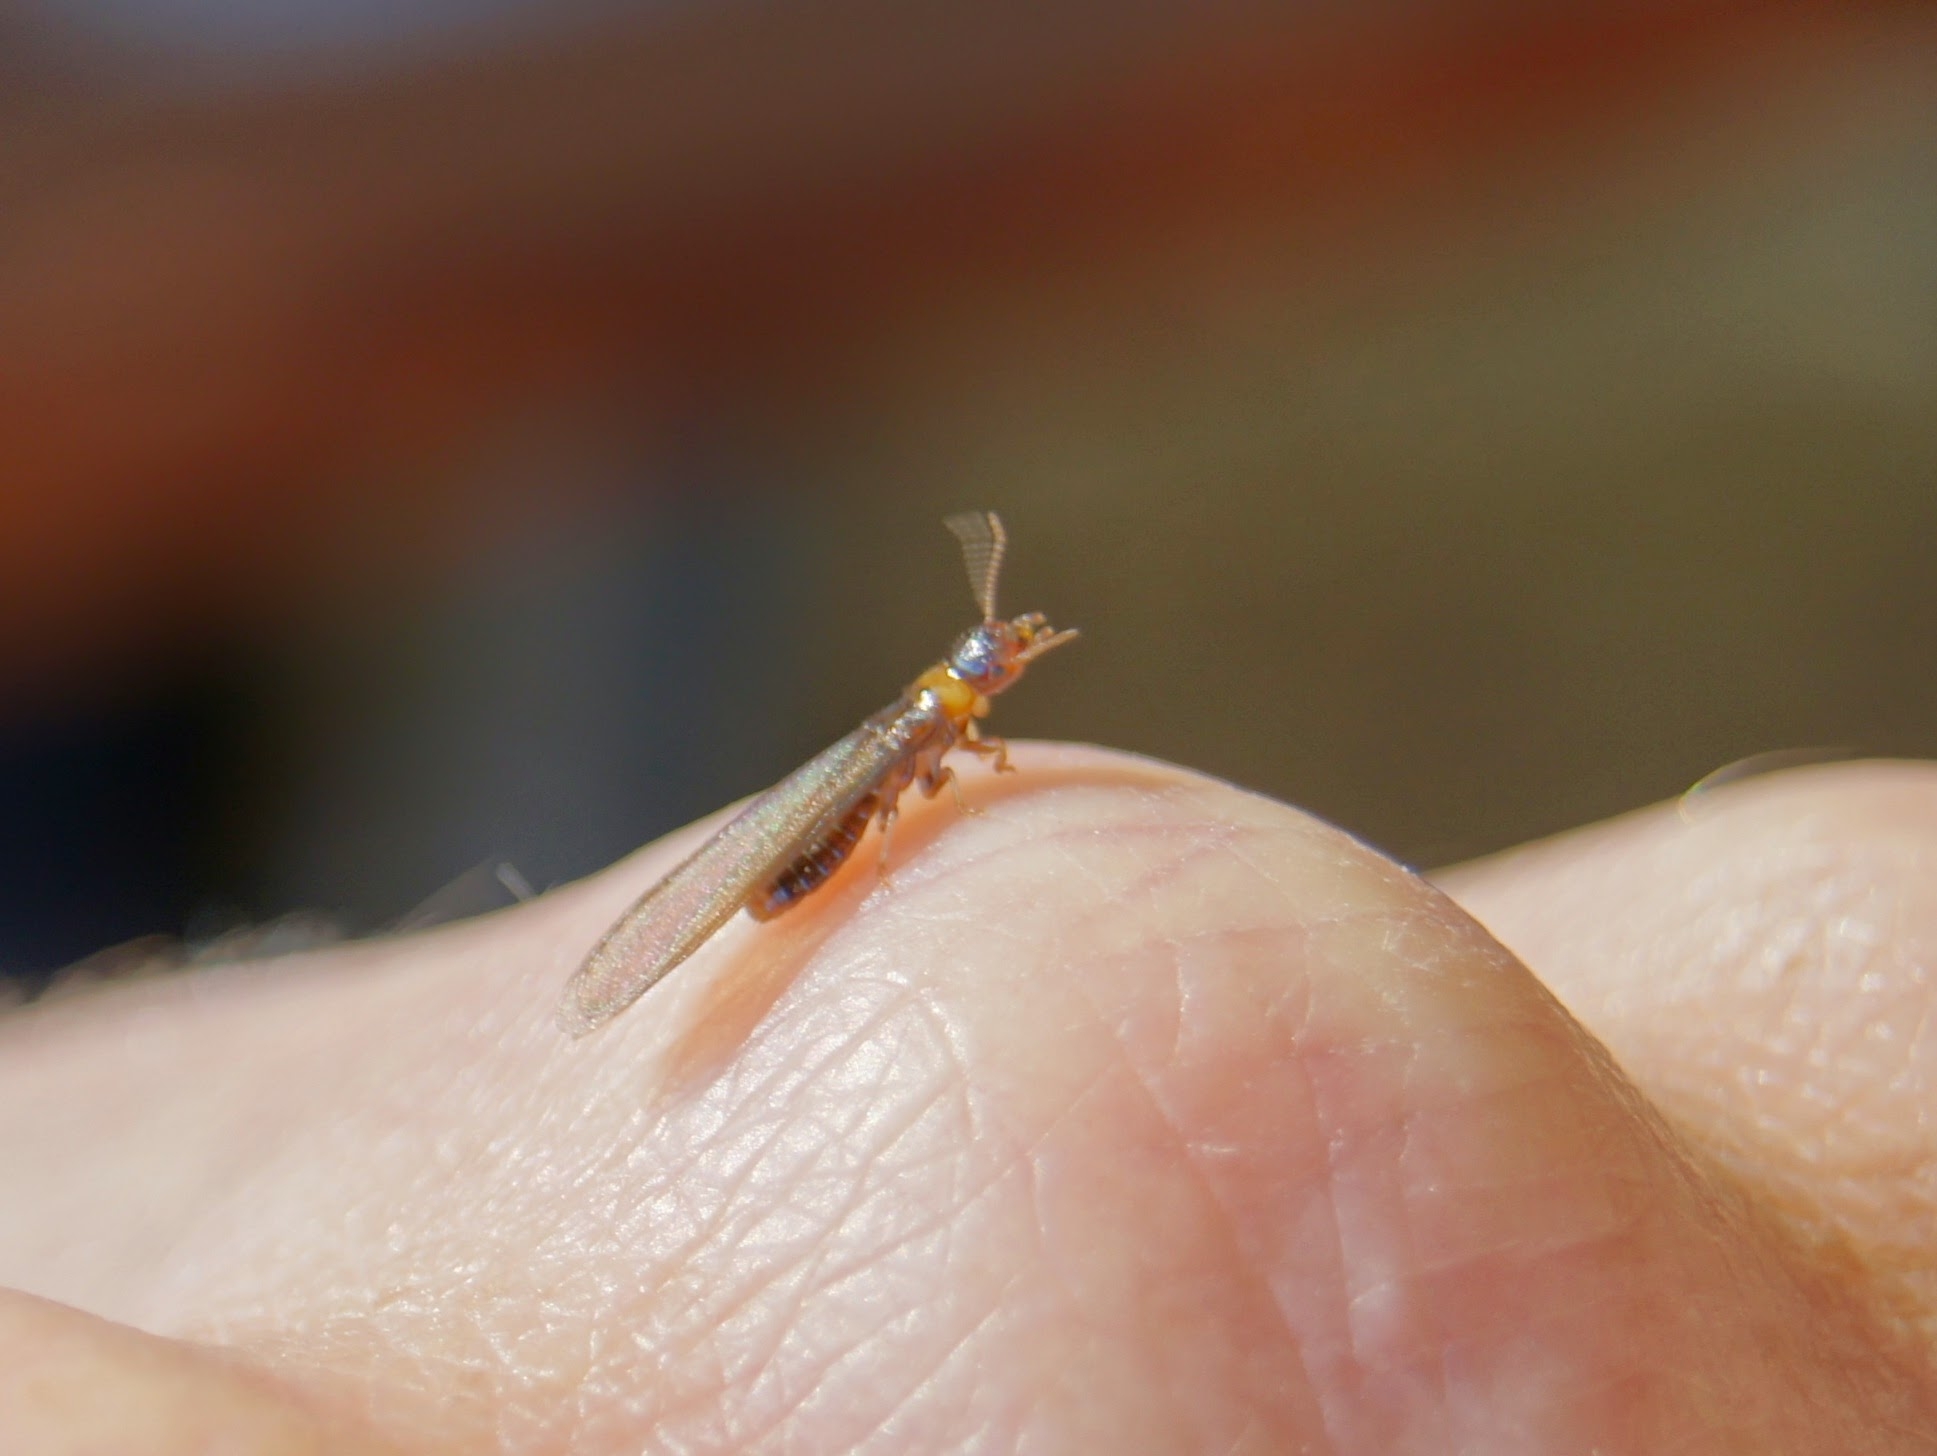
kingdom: Animalia
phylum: Arthropoda
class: Insecta
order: Blattodea
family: Kalotermitidae
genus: Kalotermes
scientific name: Kalotermes flavicollis
